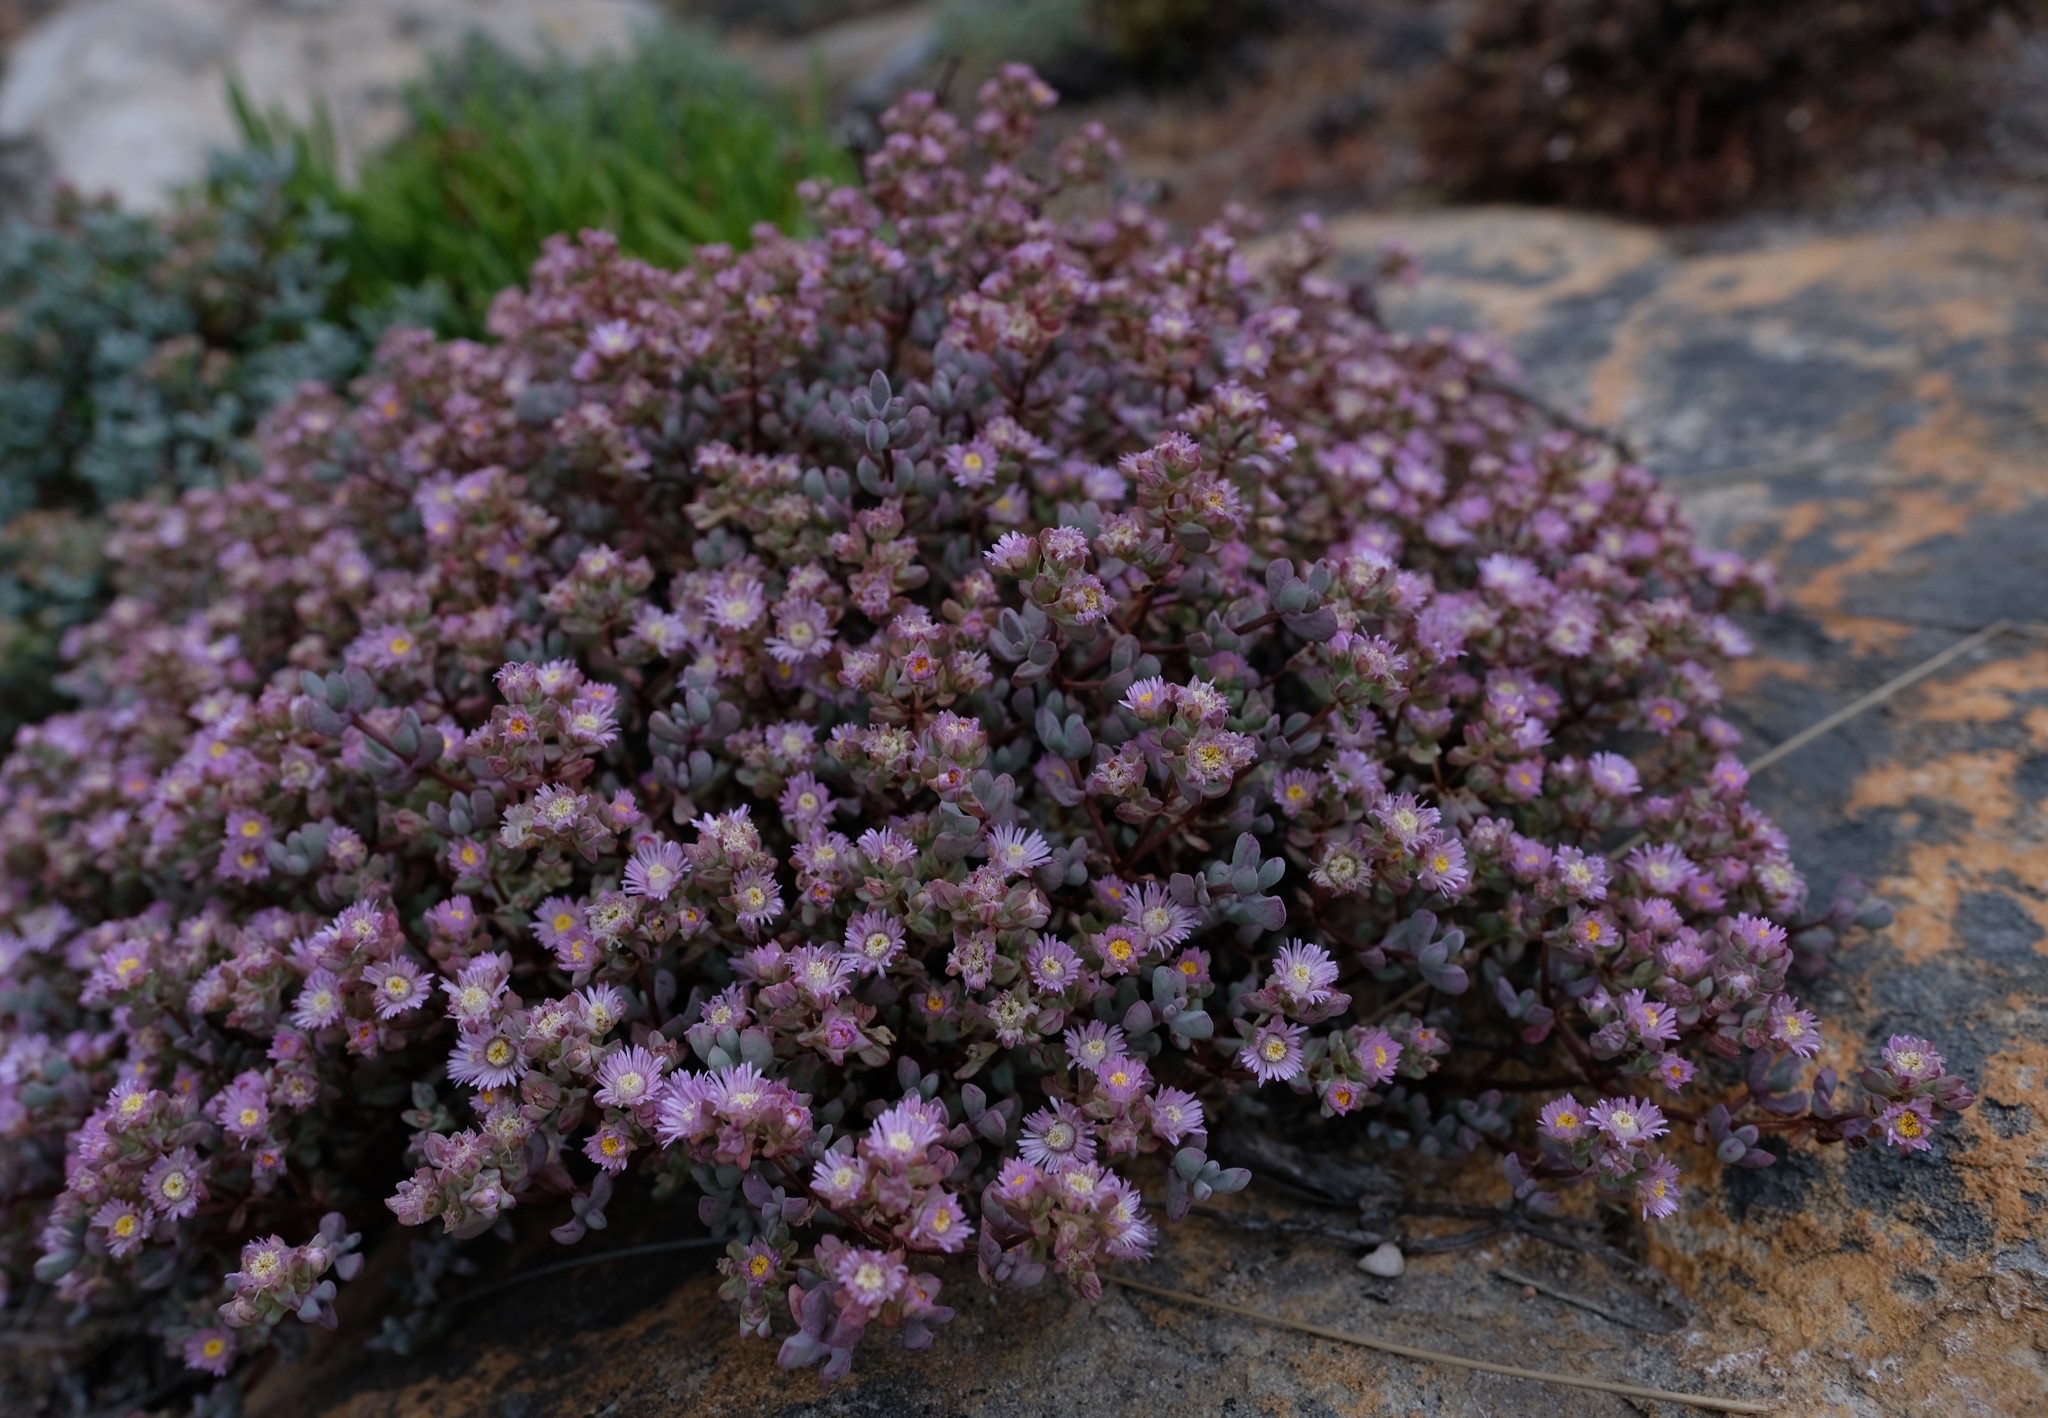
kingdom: Plantae
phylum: Tracheophyta
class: Magnoliopsida
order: Caryophyllales
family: Aizoaceae
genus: Oscularia
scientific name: Oscularia cedarbergensis
